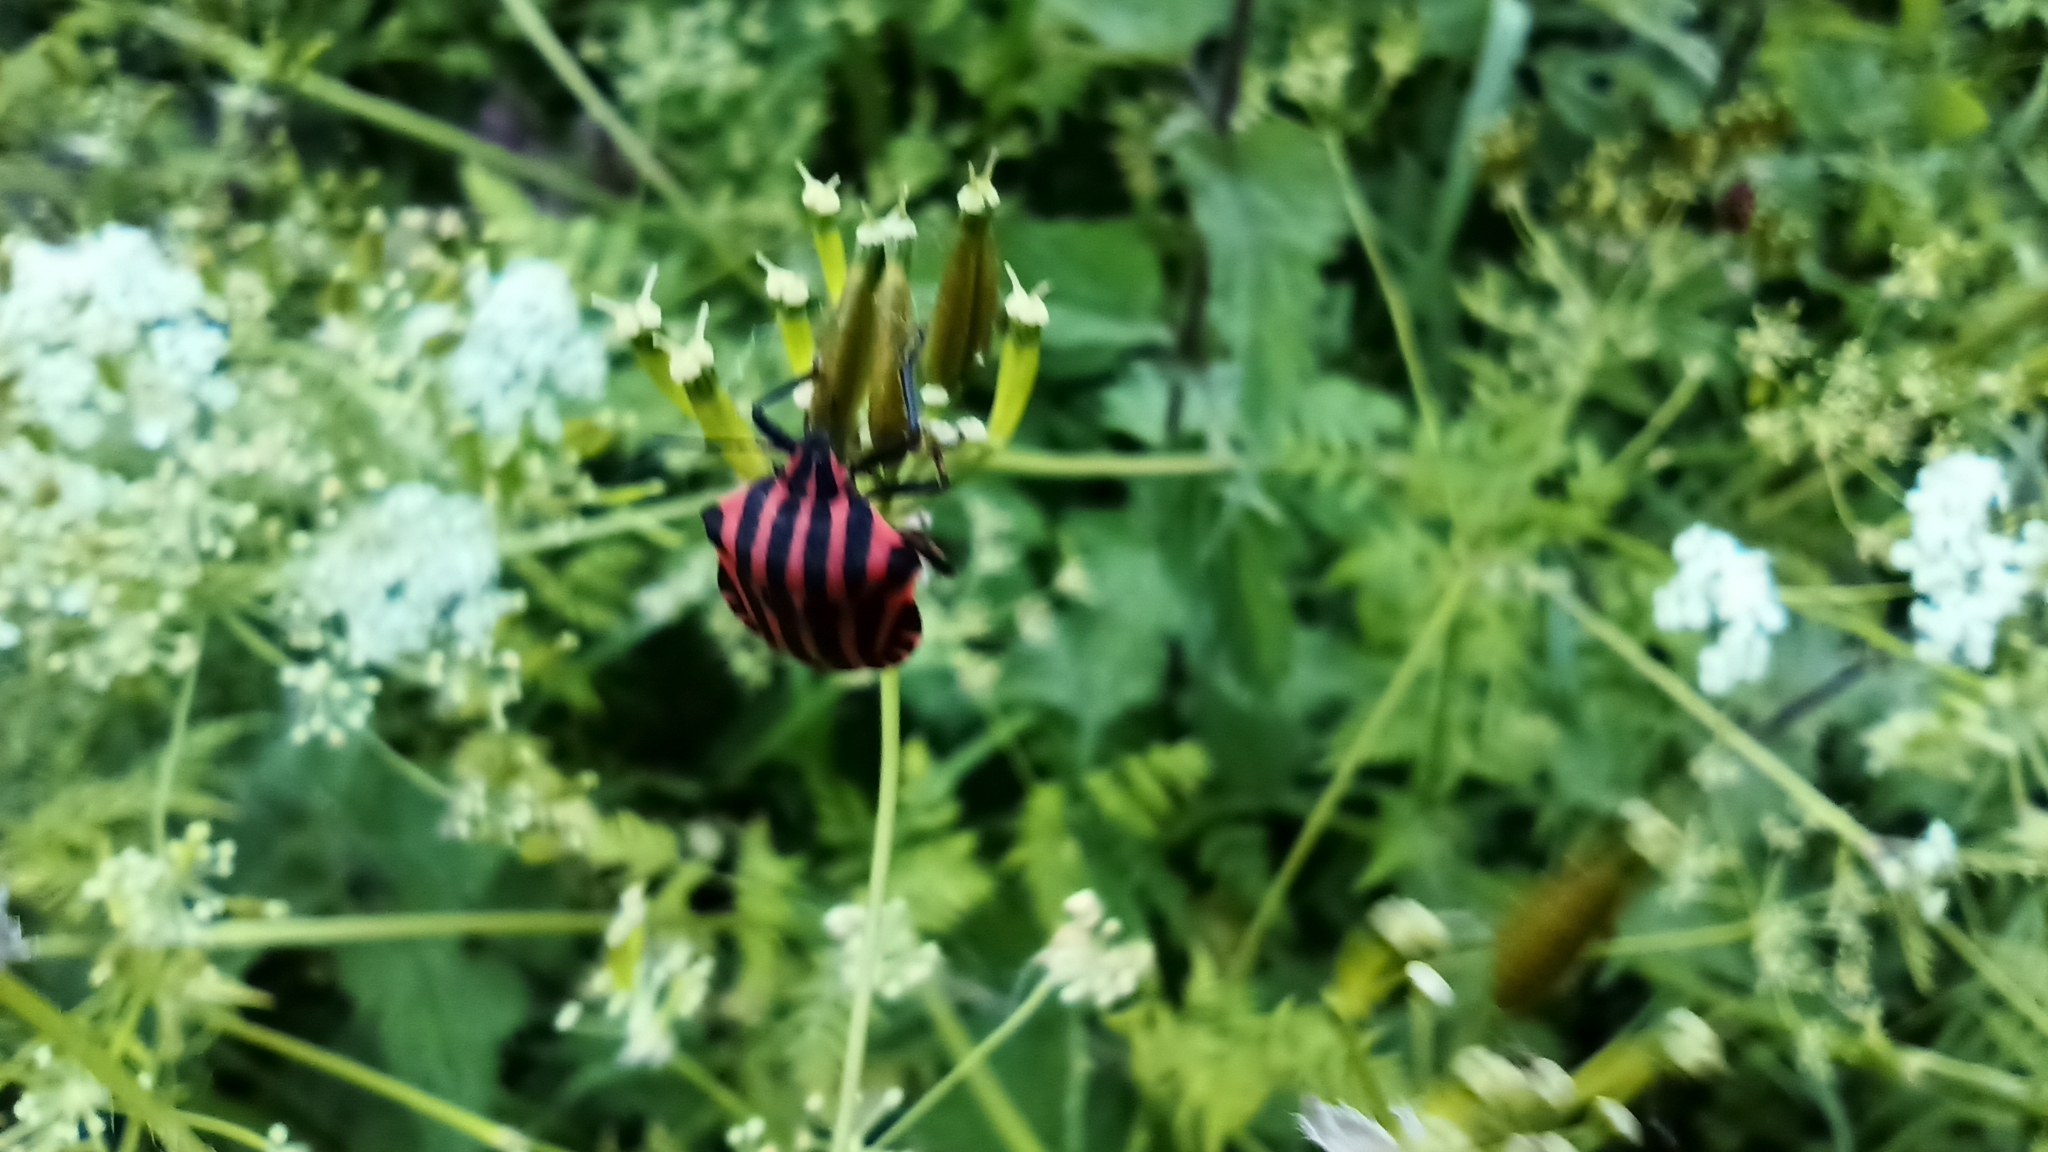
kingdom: Animalia
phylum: Arthropoda
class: Insecta
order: Hemiptera
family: Pentatomidae
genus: Graphosoma
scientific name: Graphosoma italicum
